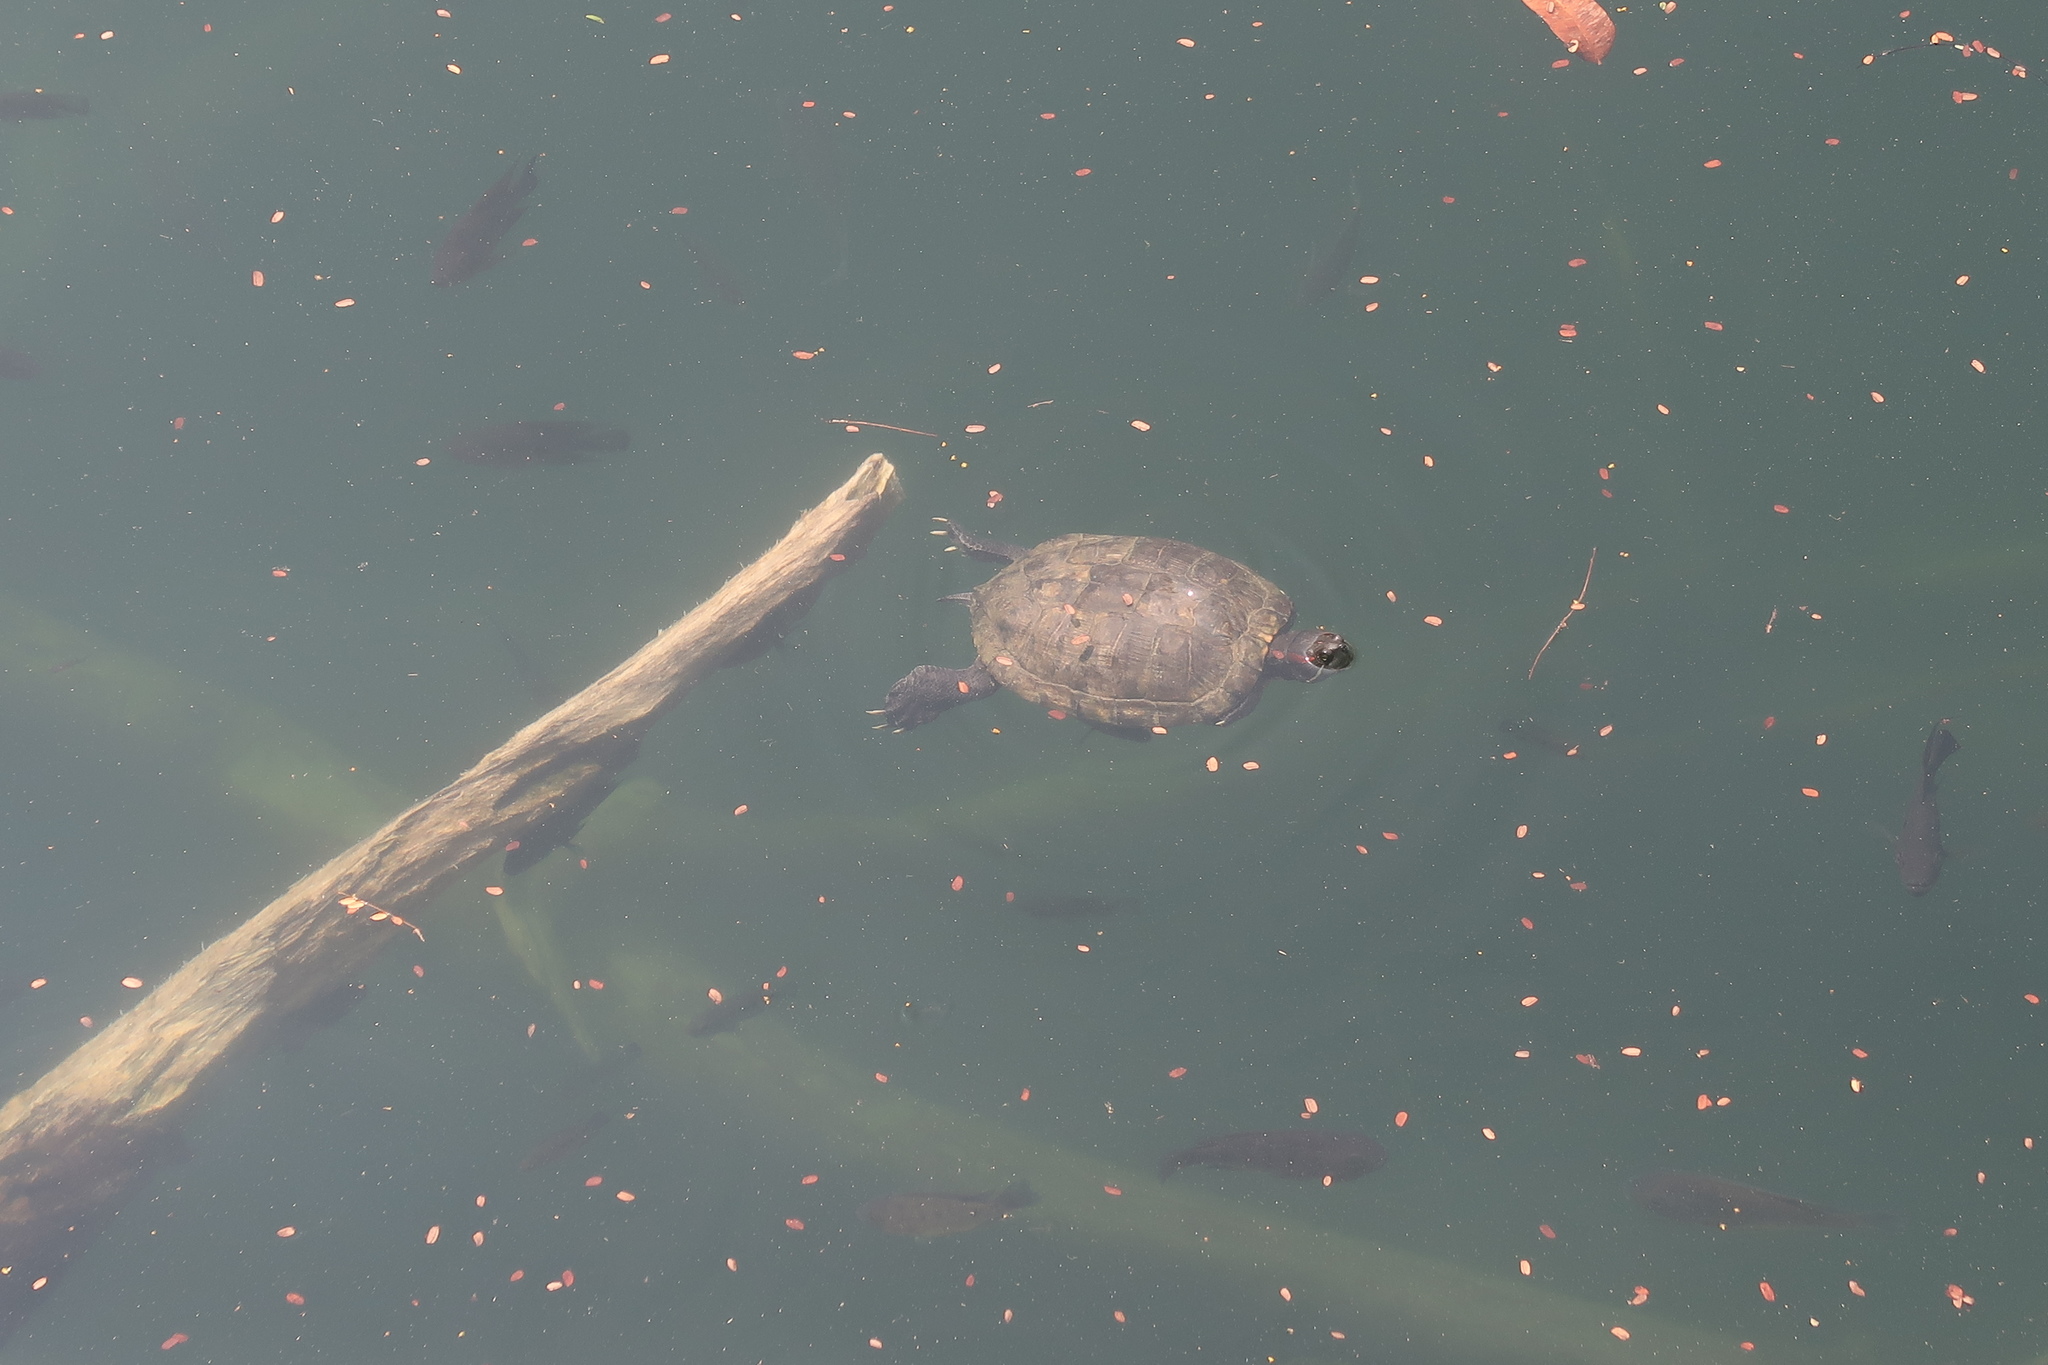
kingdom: Animalia
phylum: Chordata
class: Testudines
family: Emydidae
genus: Trachemys
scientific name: Trachemys scripta
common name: Slider
